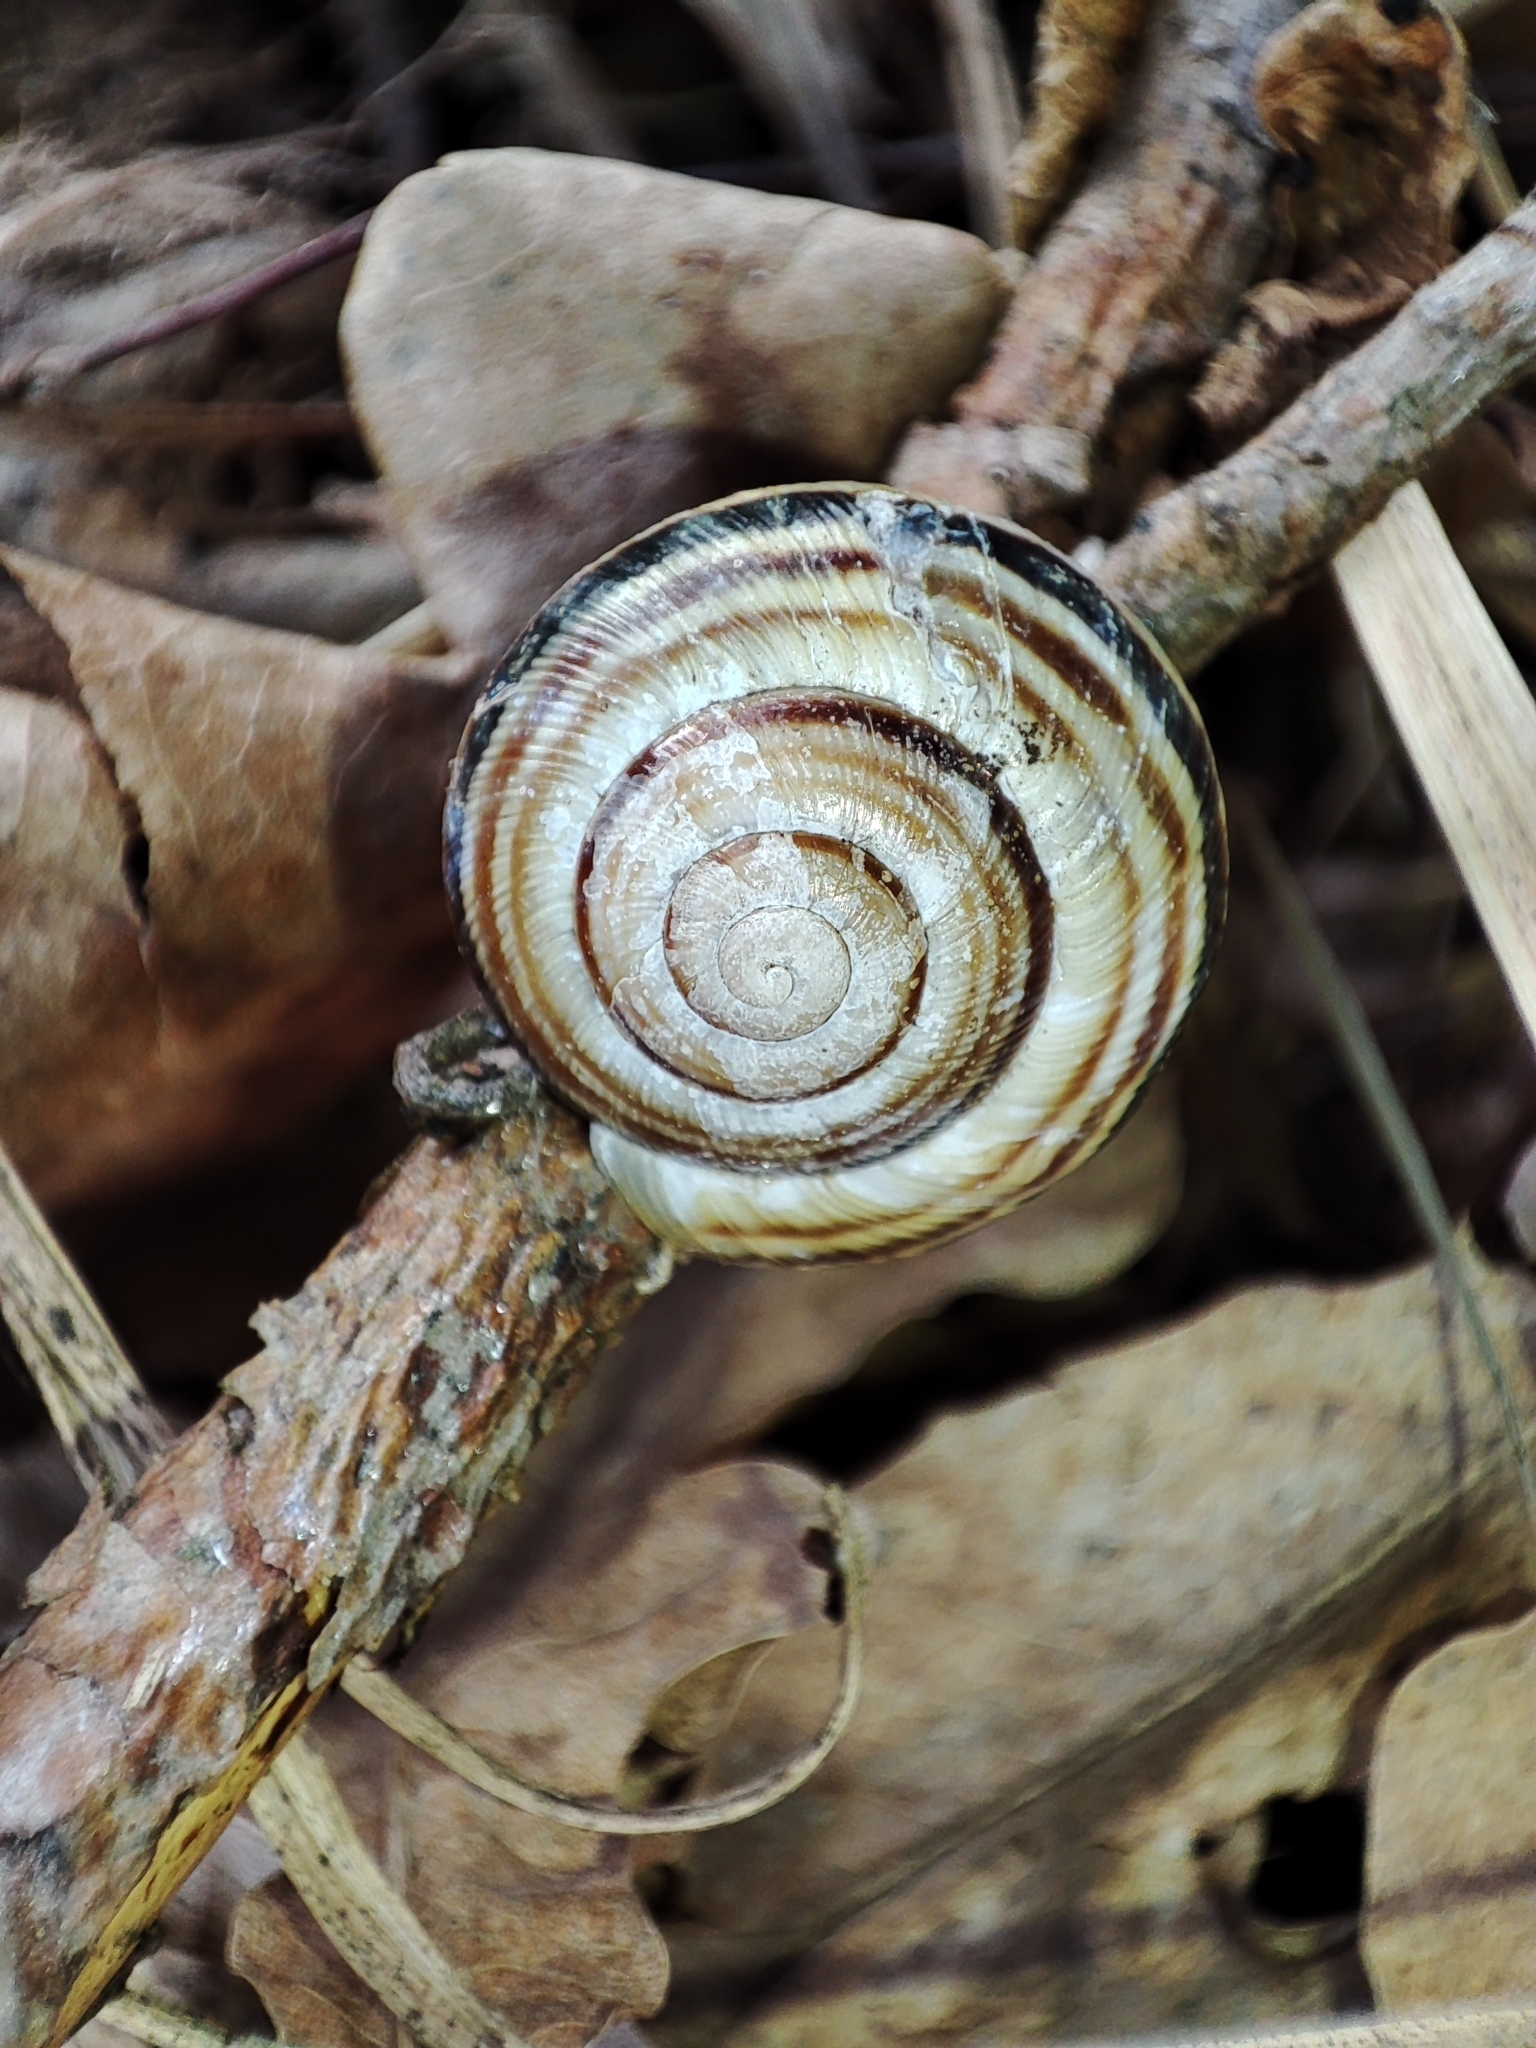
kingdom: Animalia
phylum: Mollusca
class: Gastropoda
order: Stylommatophora
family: Helicidae
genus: Caucasotachea
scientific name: Caucasotachea vindobonensis
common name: European helicid land snail
